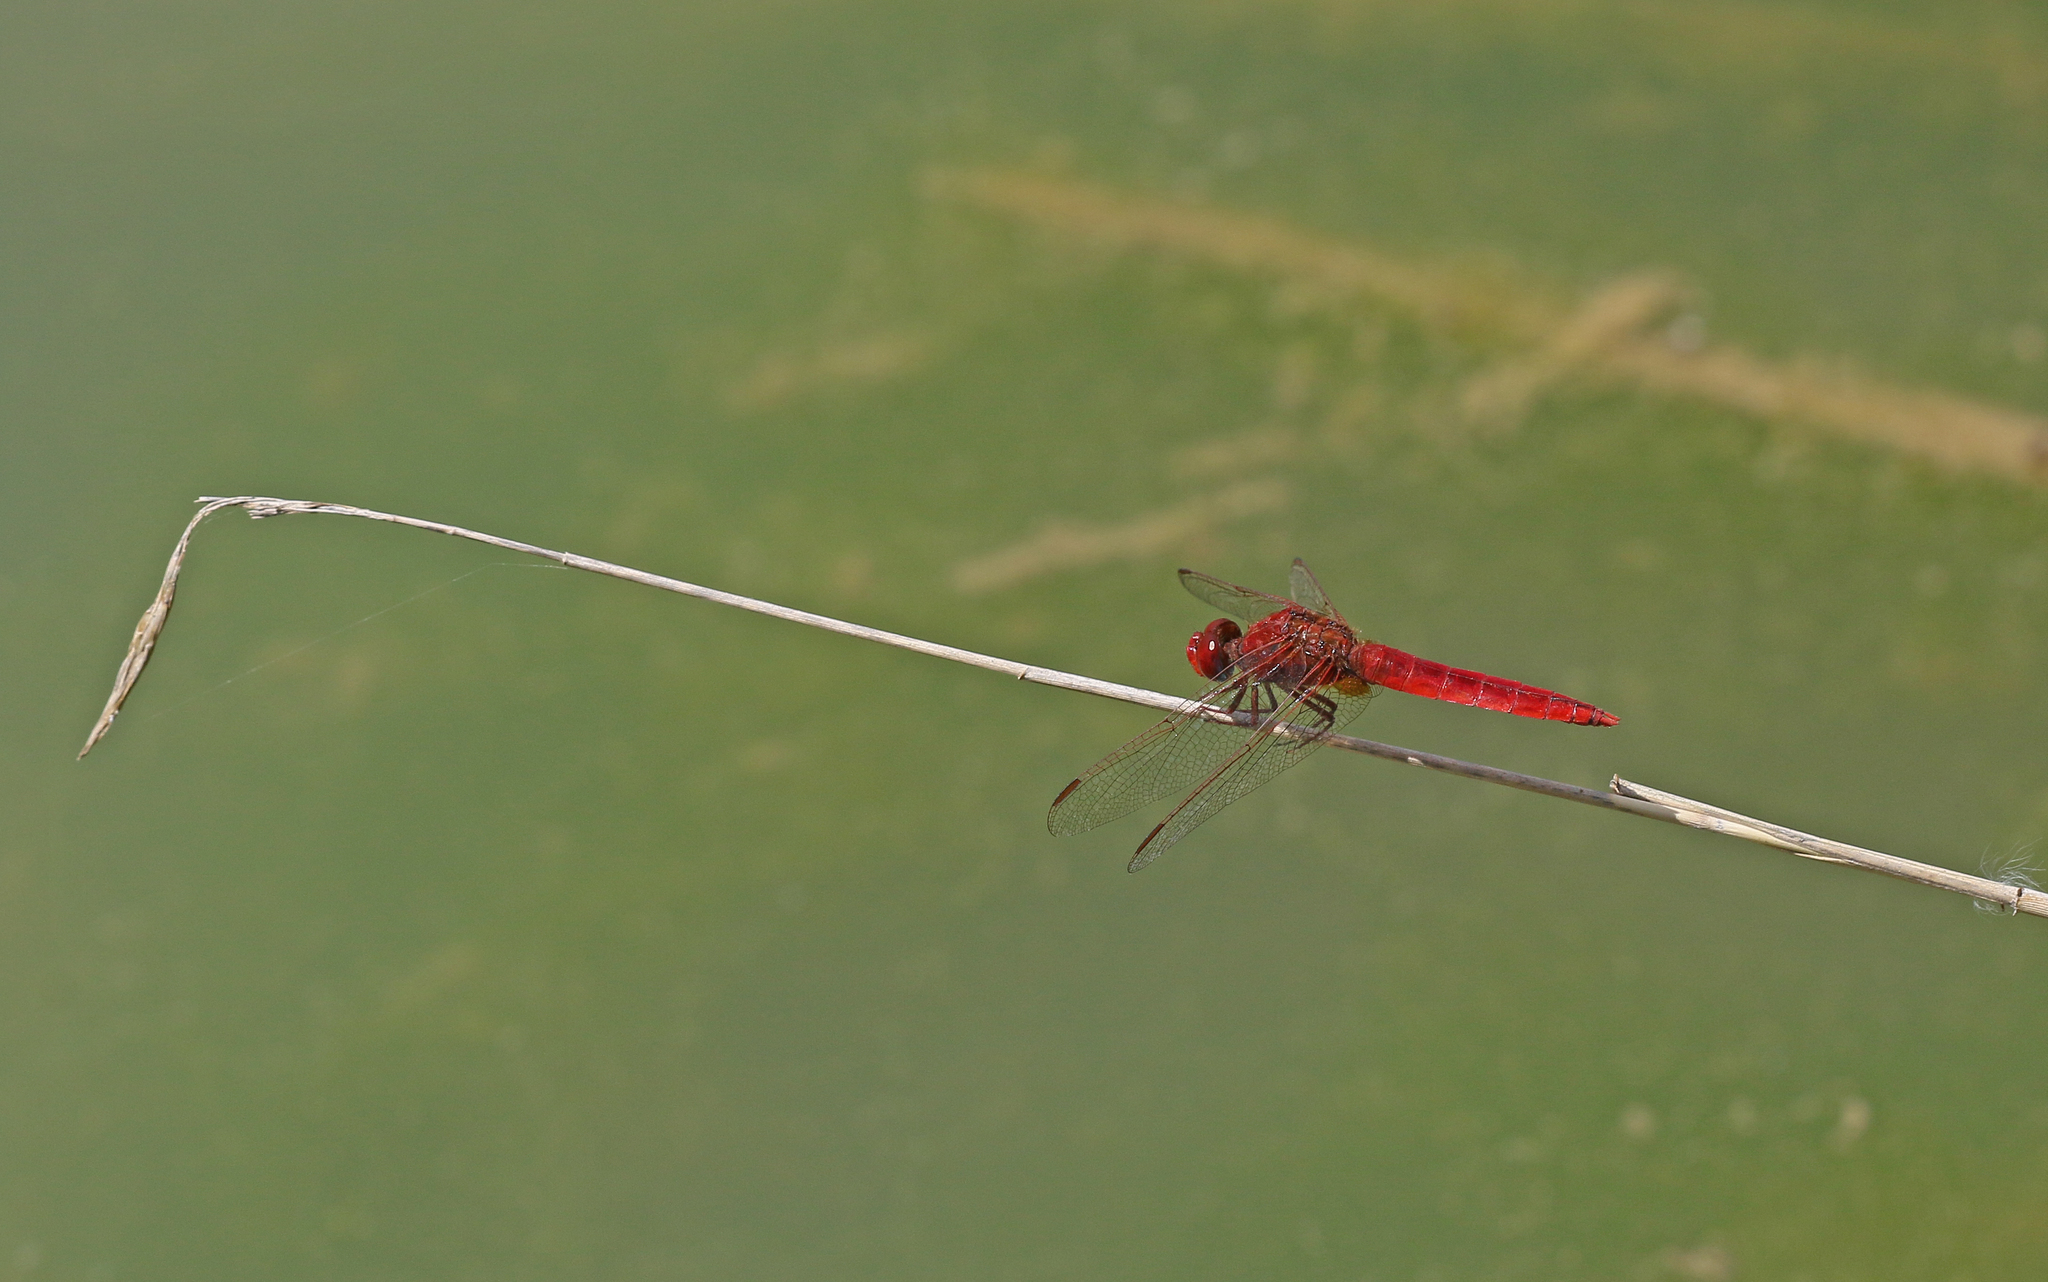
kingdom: Animalia
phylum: Arthropoda
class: Insecta
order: Odonata
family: Libellulidae
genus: Crocothemis
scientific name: Crocothemis erythraea
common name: Scarlet dragonfly
